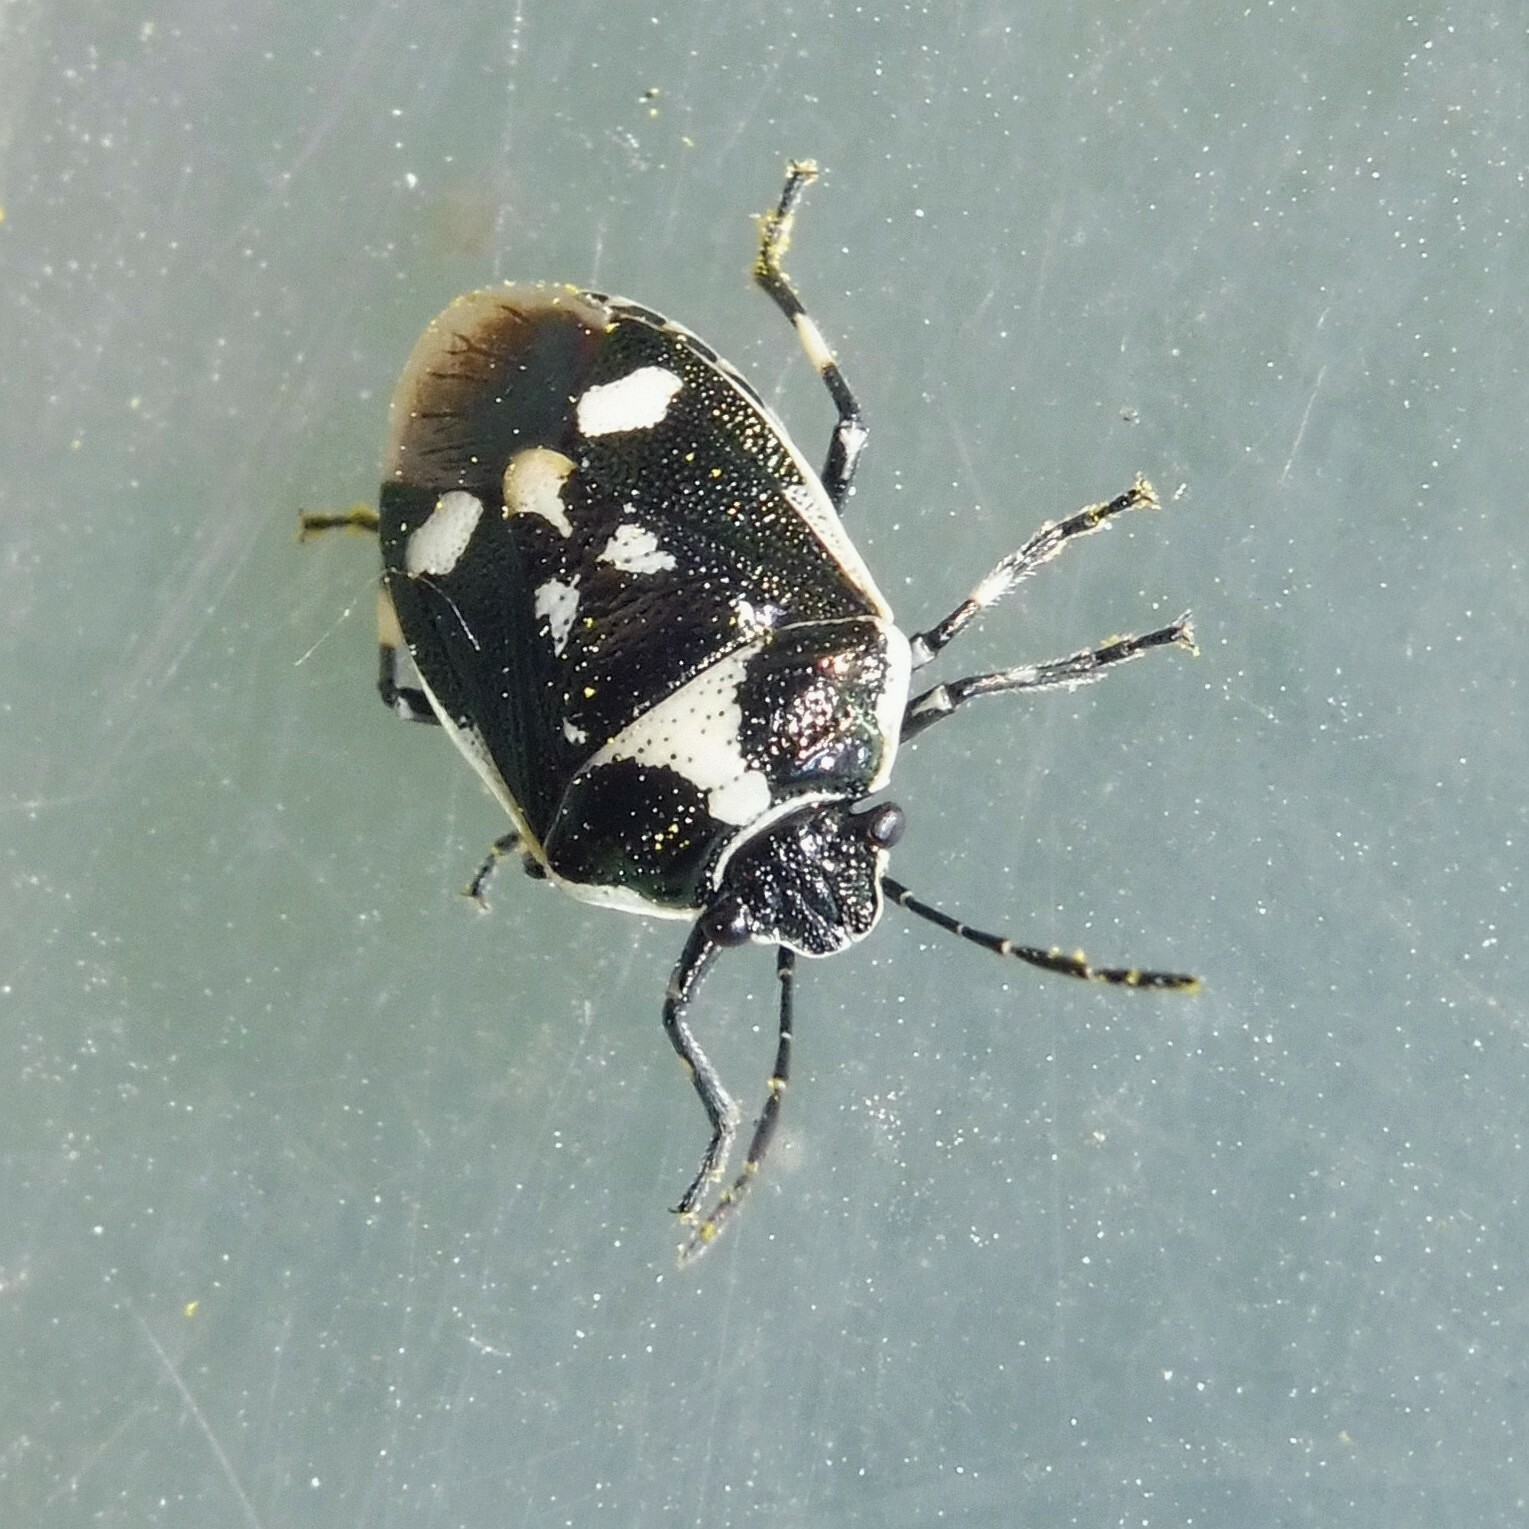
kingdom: Animalia
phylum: Arthropoda
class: Insecta
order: Hemiptera
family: Pentatomidae
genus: Eurydema
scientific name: Eurydema oleracea
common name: Cabbage bug
